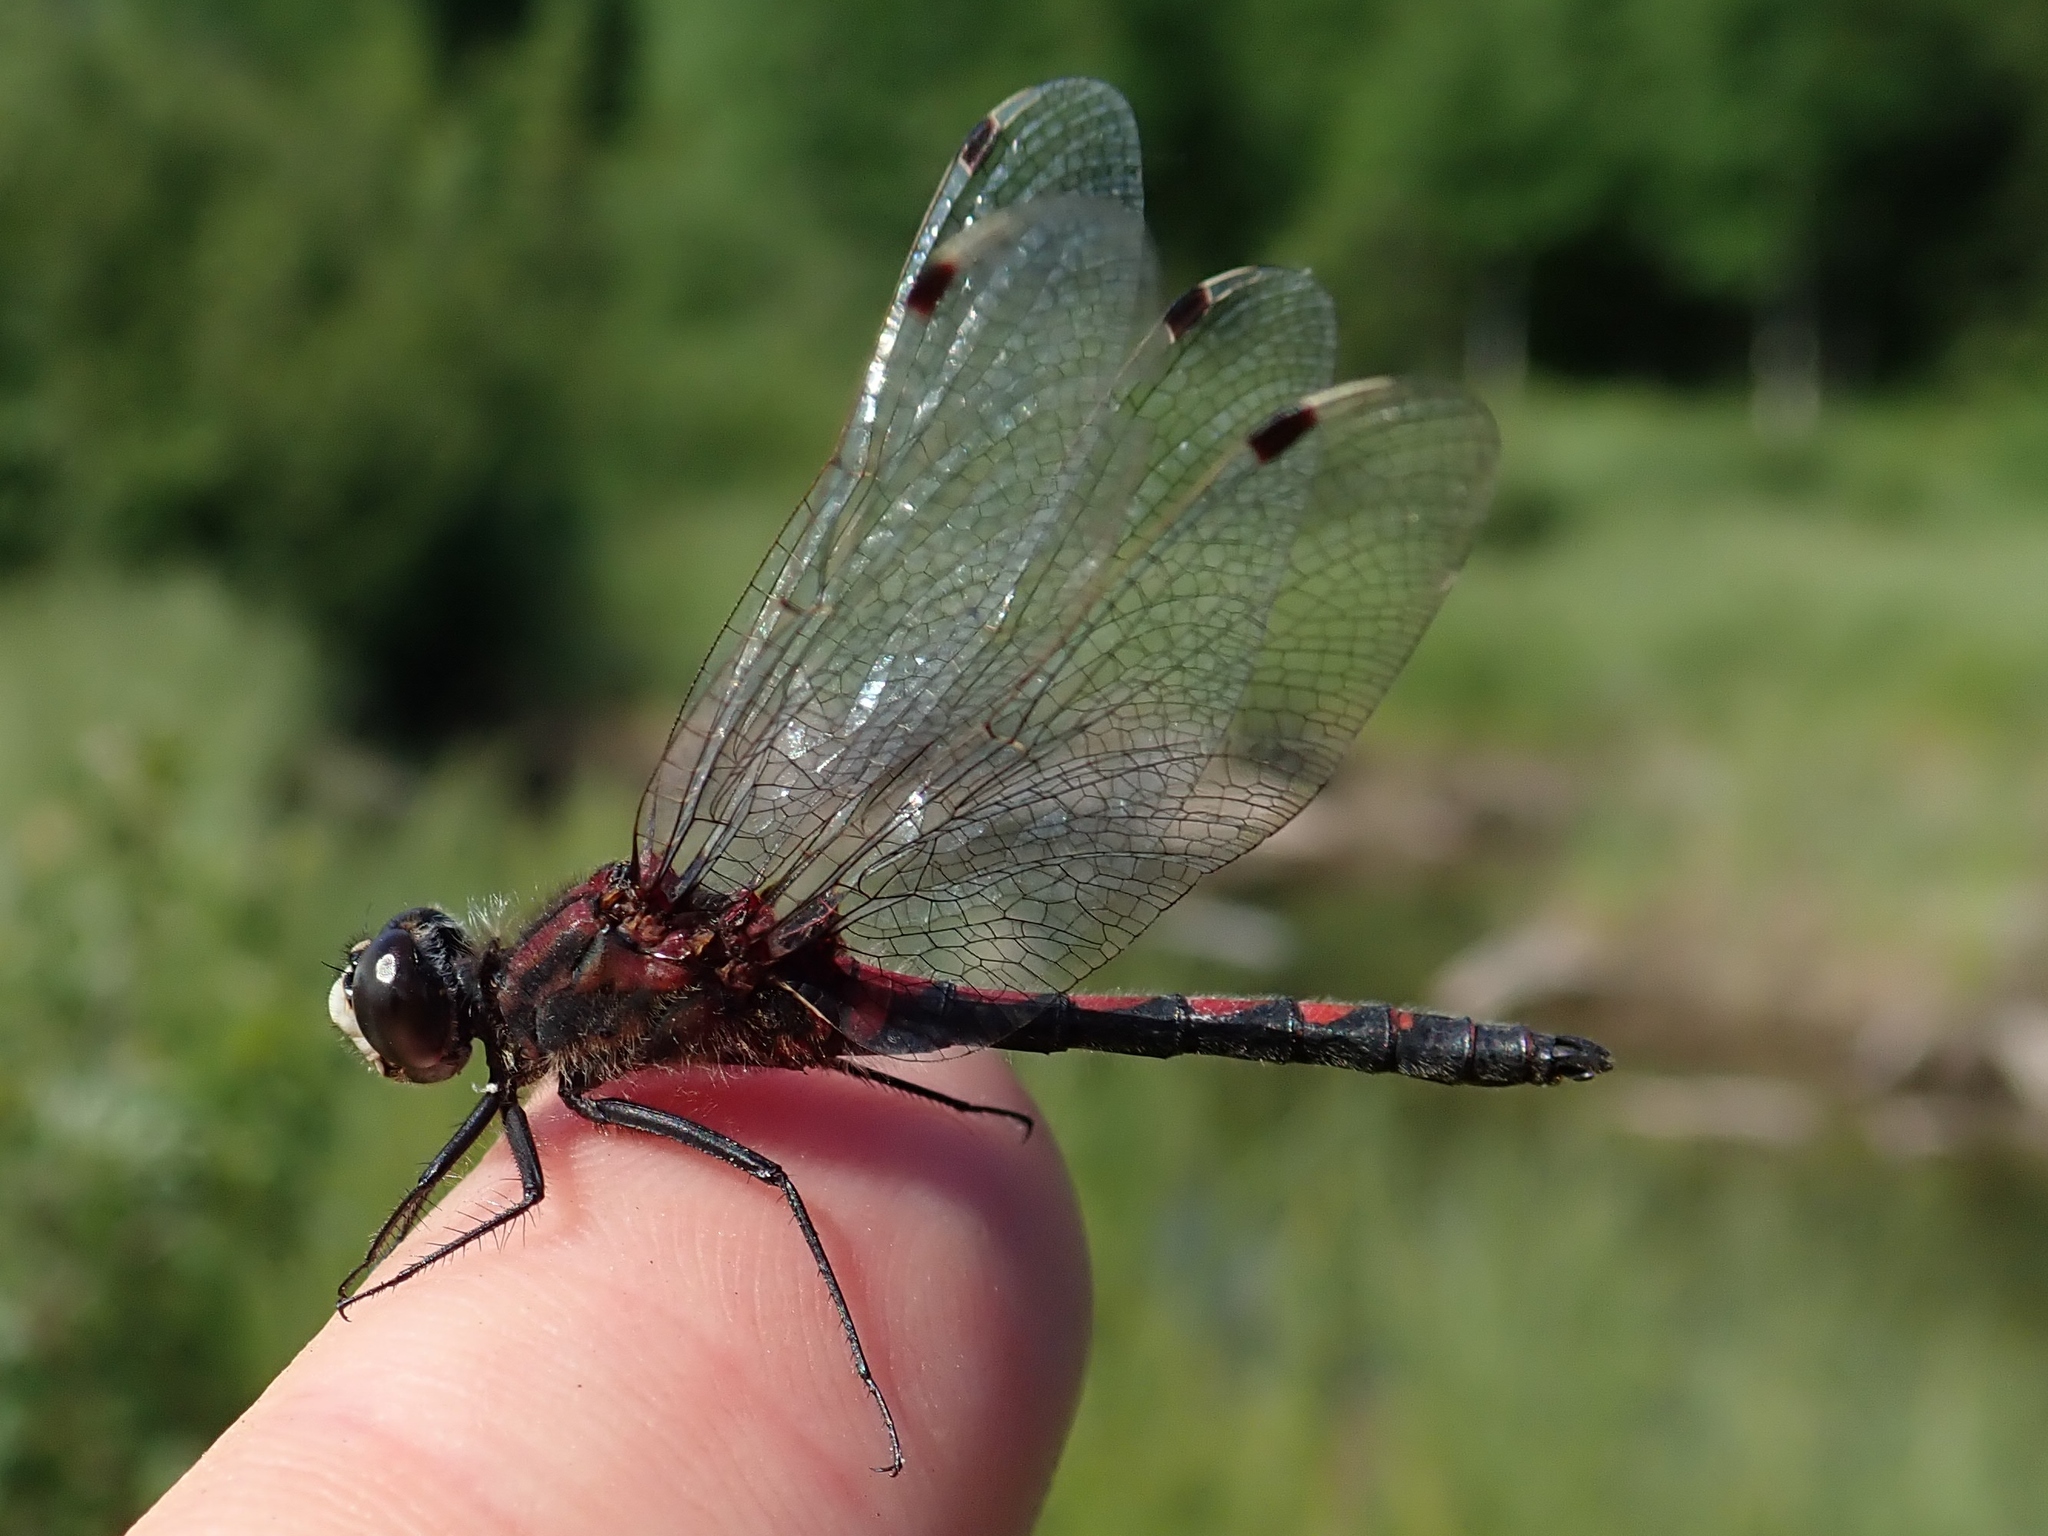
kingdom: Animalia
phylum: Arthropoda
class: Insecta
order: Odonata
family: Libellulidae
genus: Leucorrhinia
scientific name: Leucorrhinia hudsonica
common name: Hudsonian whiteface
